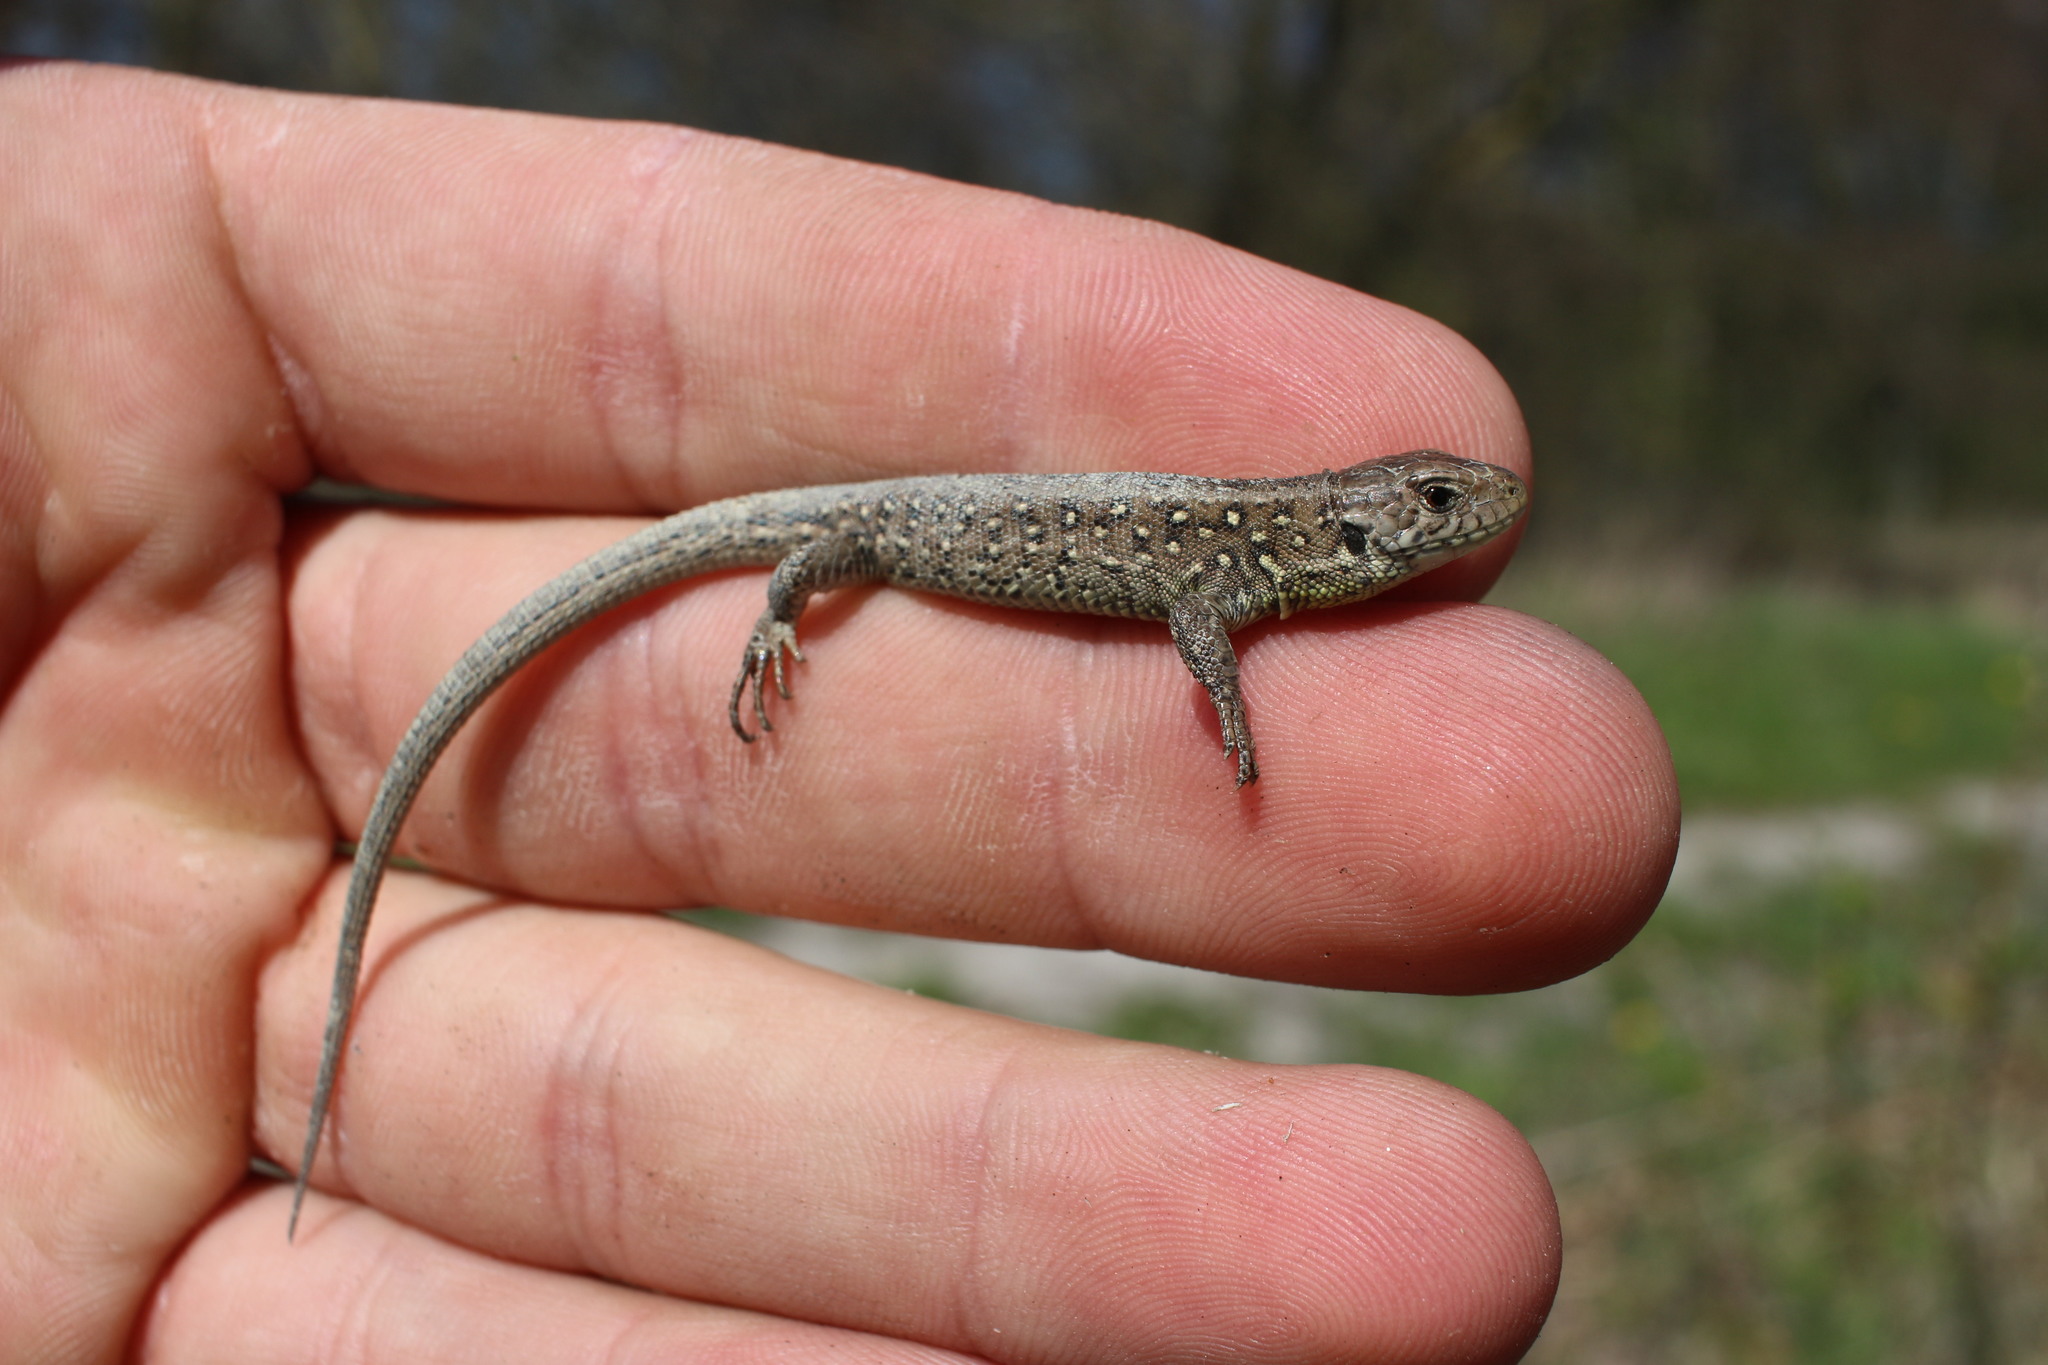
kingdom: Animalia
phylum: Chordata
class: Squamata
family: Lacertidae
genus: Lacerta
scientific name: Lacerta agilis
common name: Sand lizard
